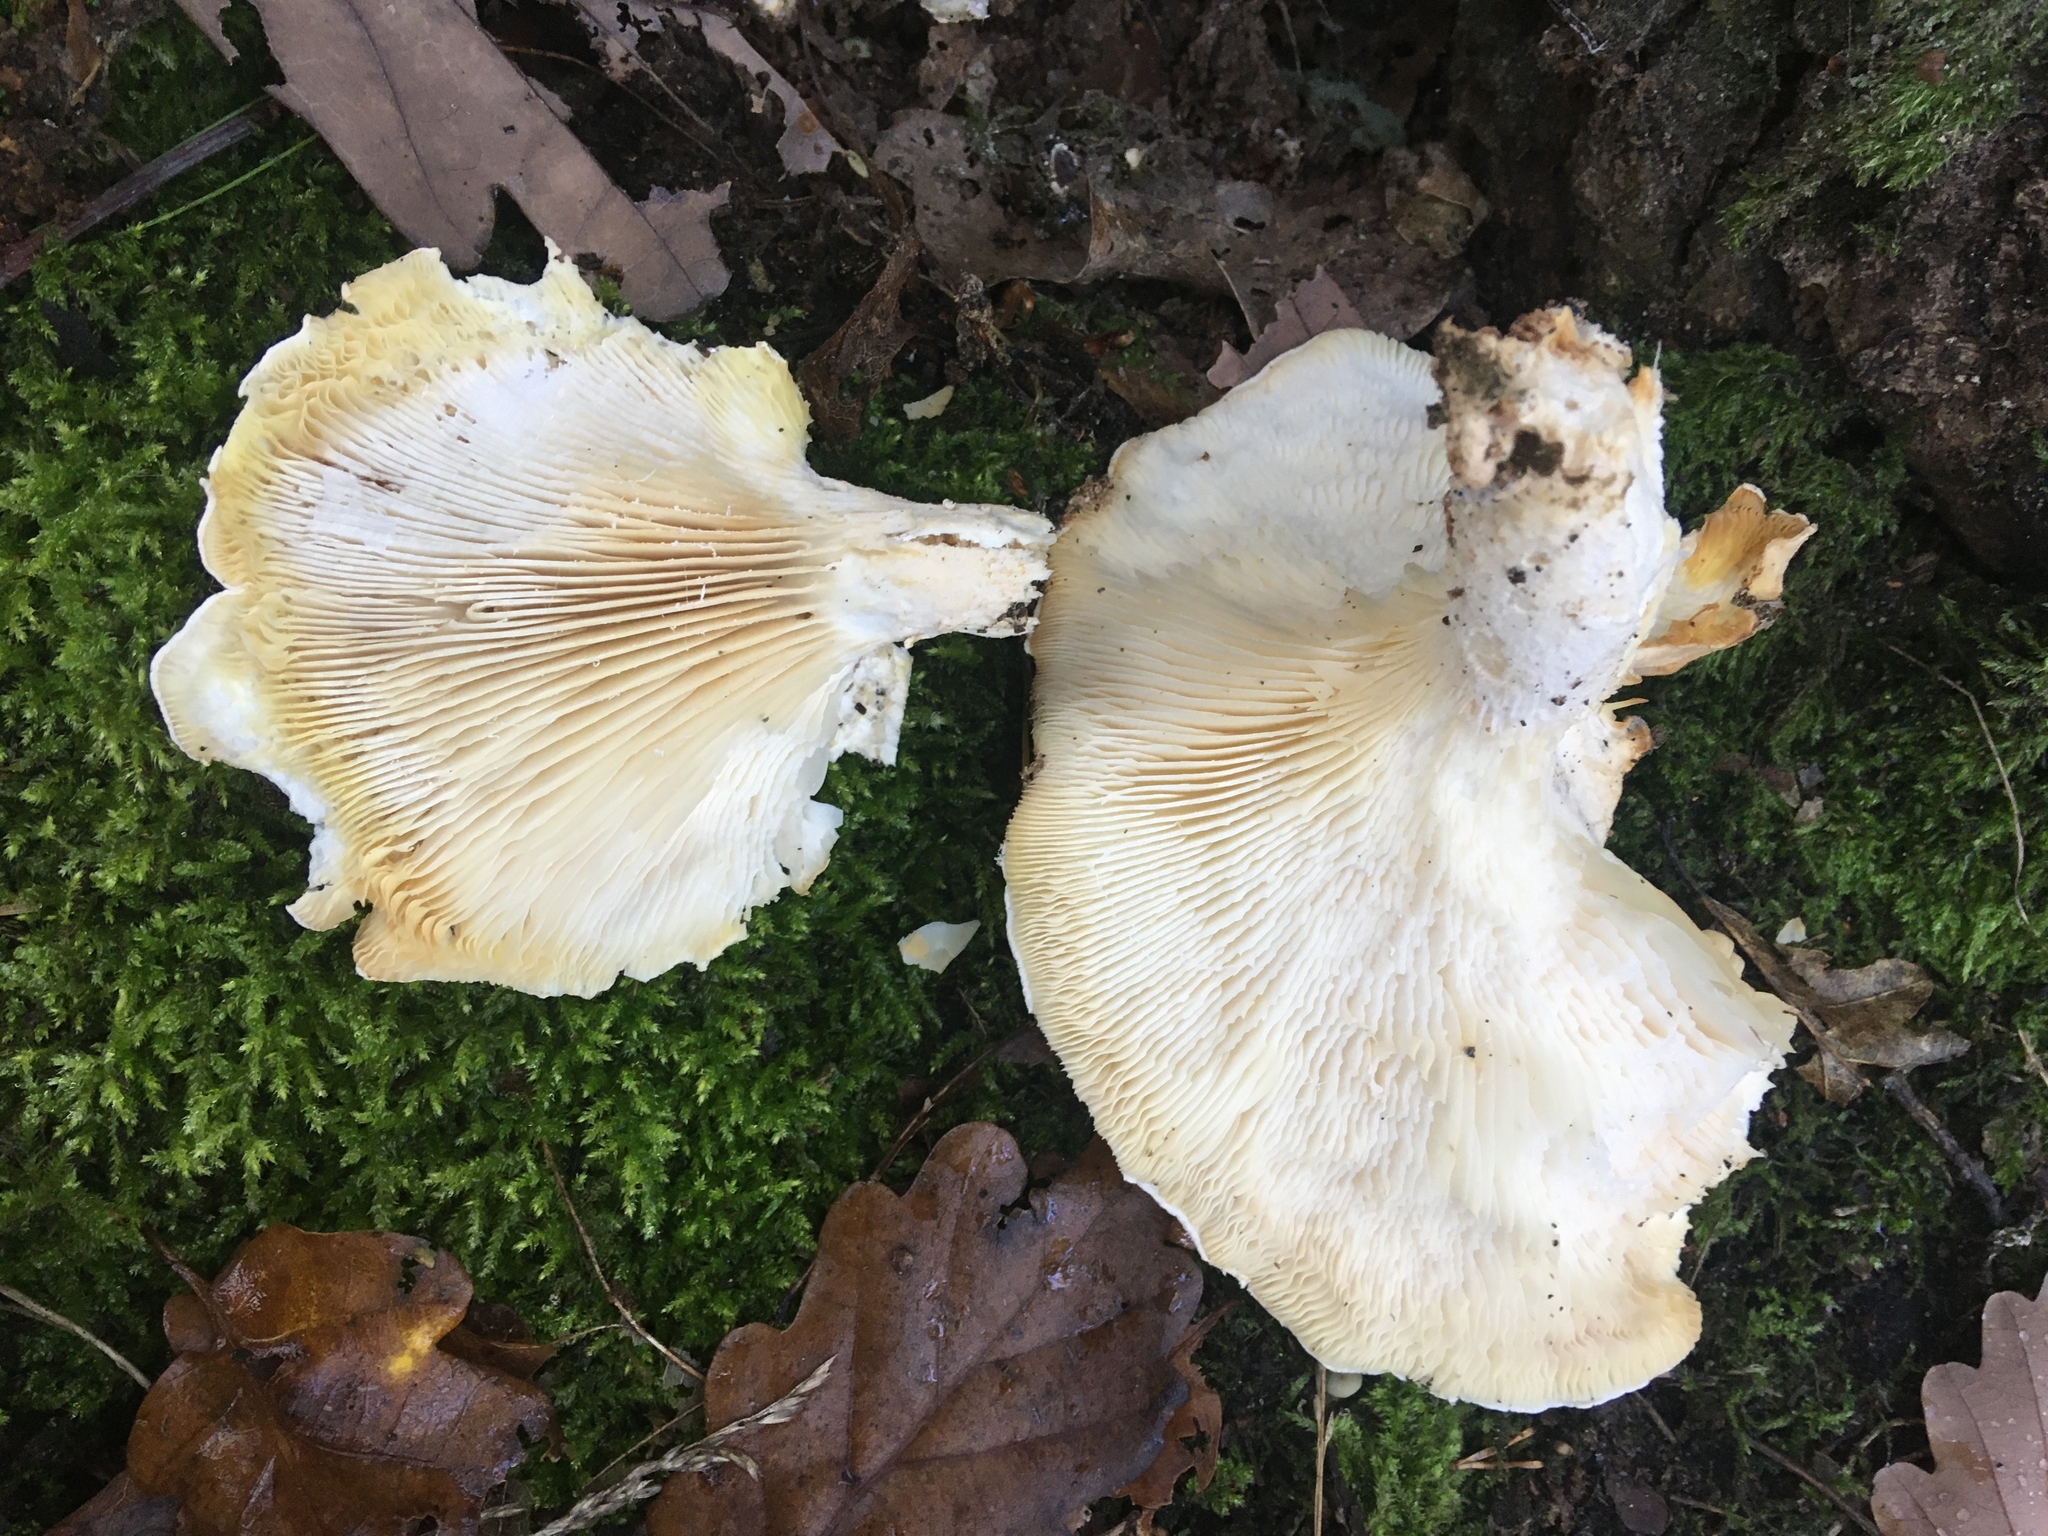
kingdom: Fungi
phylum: Basidiomycota
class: Agaricomycetes
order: Agaricales
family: Pleurotaceae
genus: Pleurotus
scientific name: Pleurotus dryinus
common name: Veiled oyster
